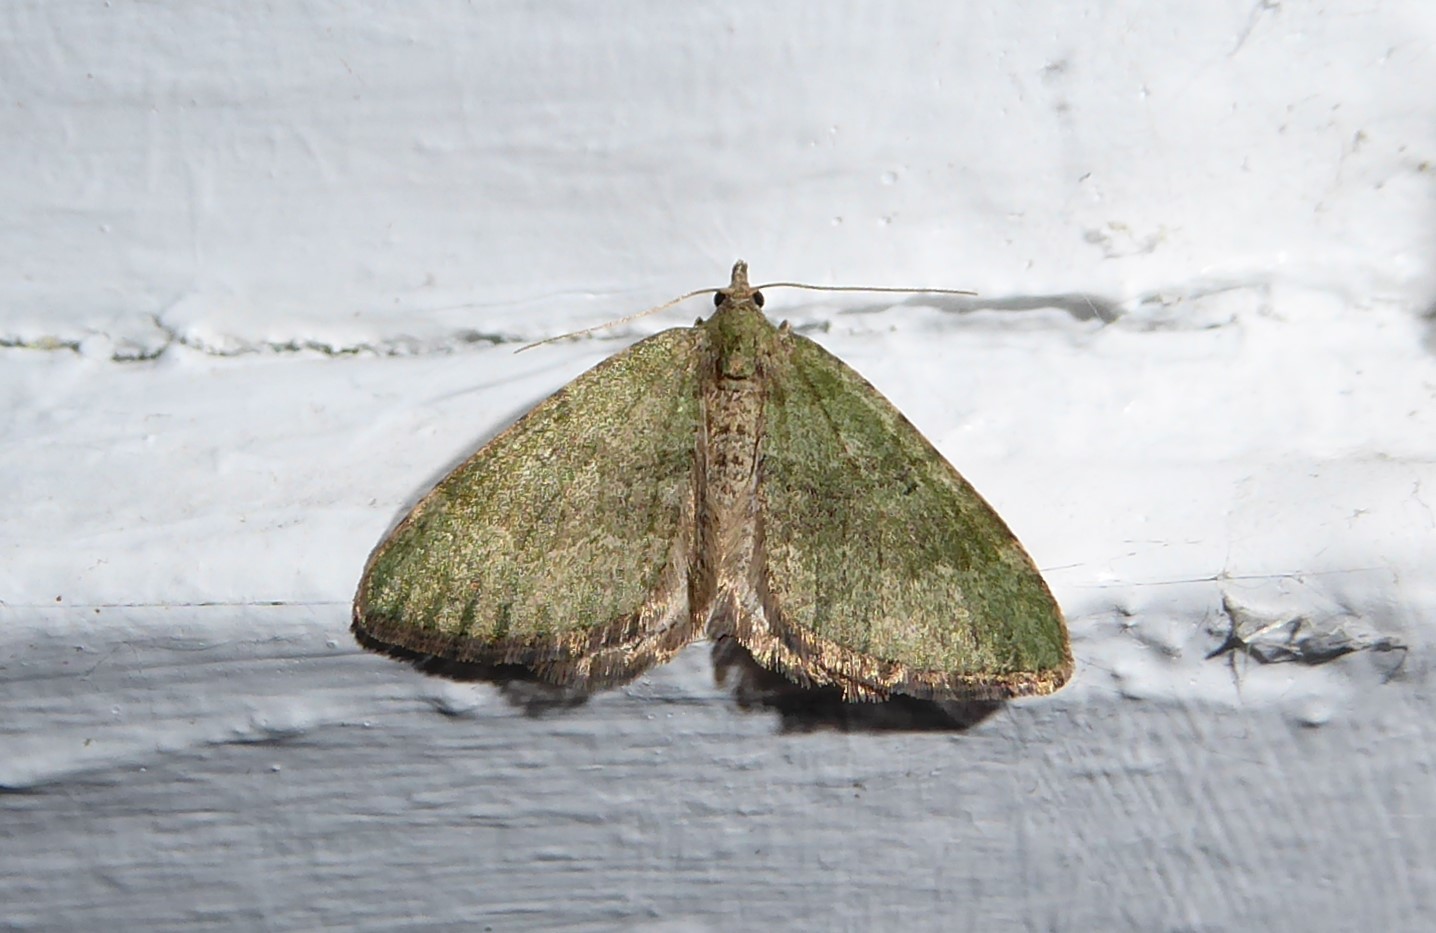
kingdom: Animalia
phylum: Arthropoda
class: Insecta
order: Lepidoptera
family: Geometridae
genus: Epyaxa
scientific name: Epyaxa rosearia
